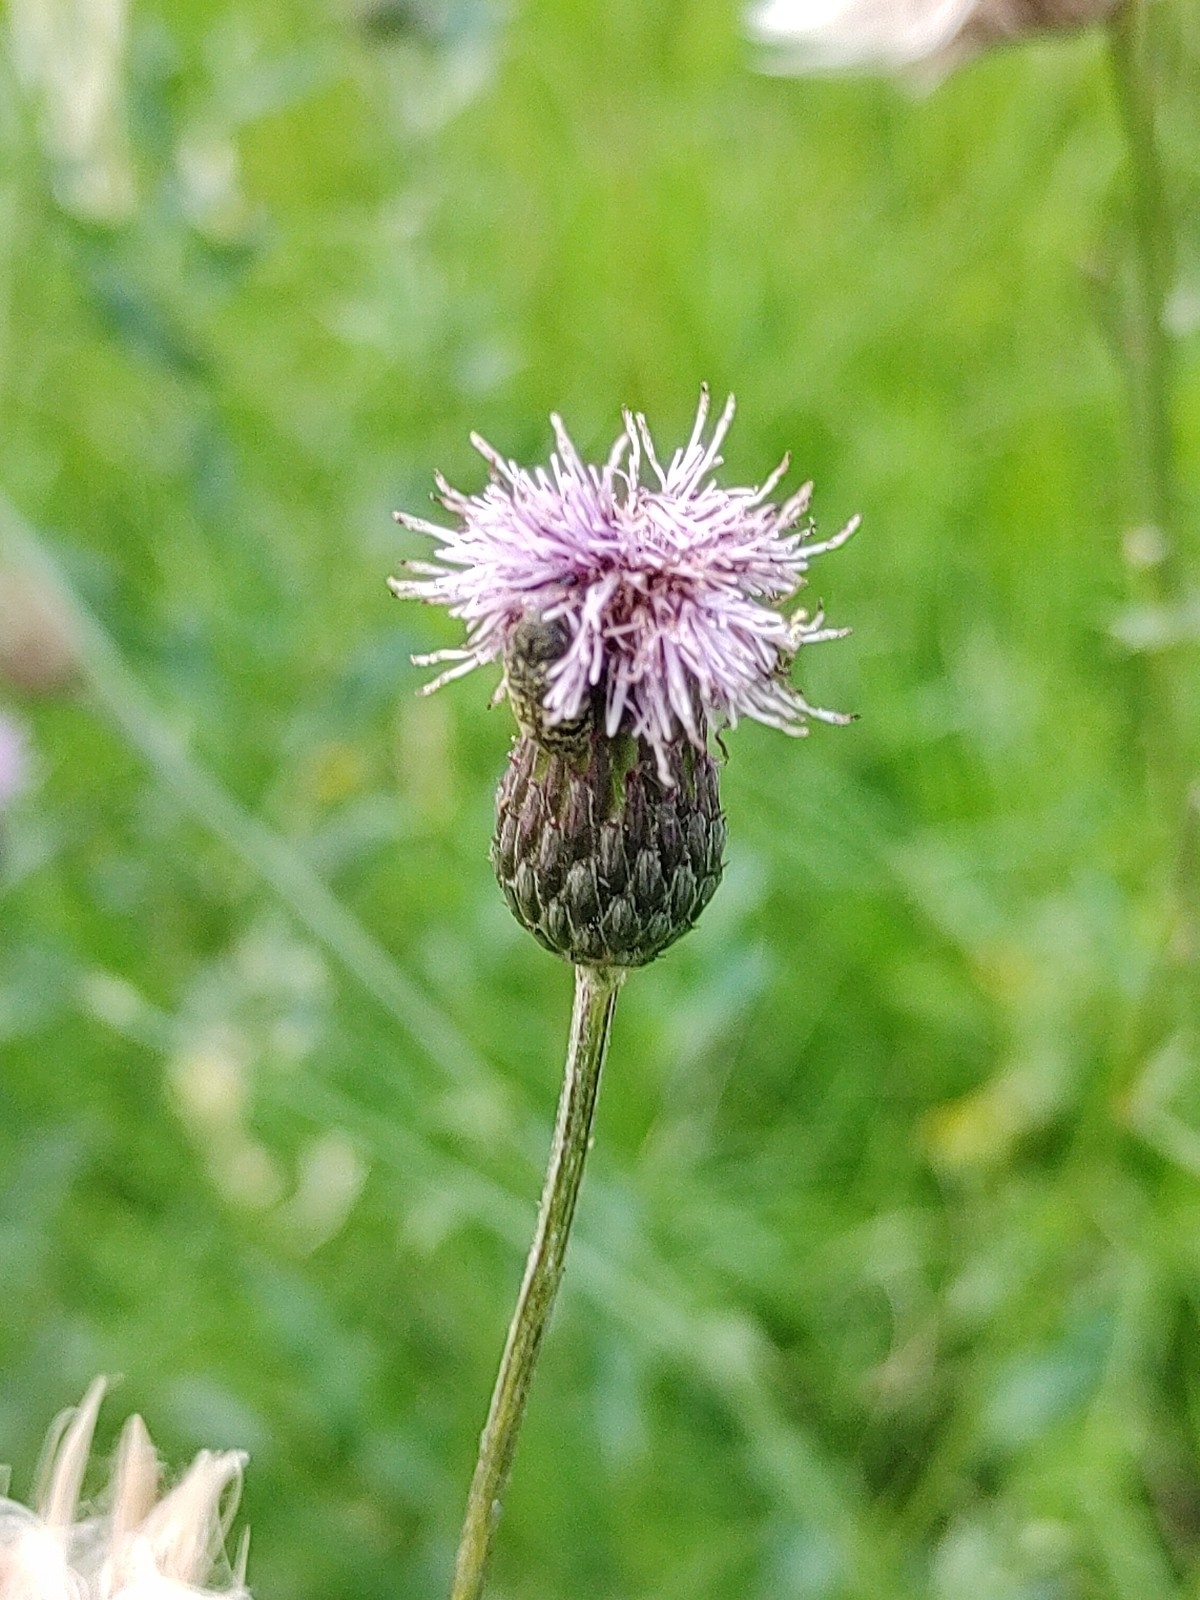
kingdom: Plantae
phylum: Tracheophyta
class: Magnoliopsida
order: Asterales
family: Asteraceae
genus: Cirsium
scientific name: Cirsium arvense
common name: Creeping thistle
